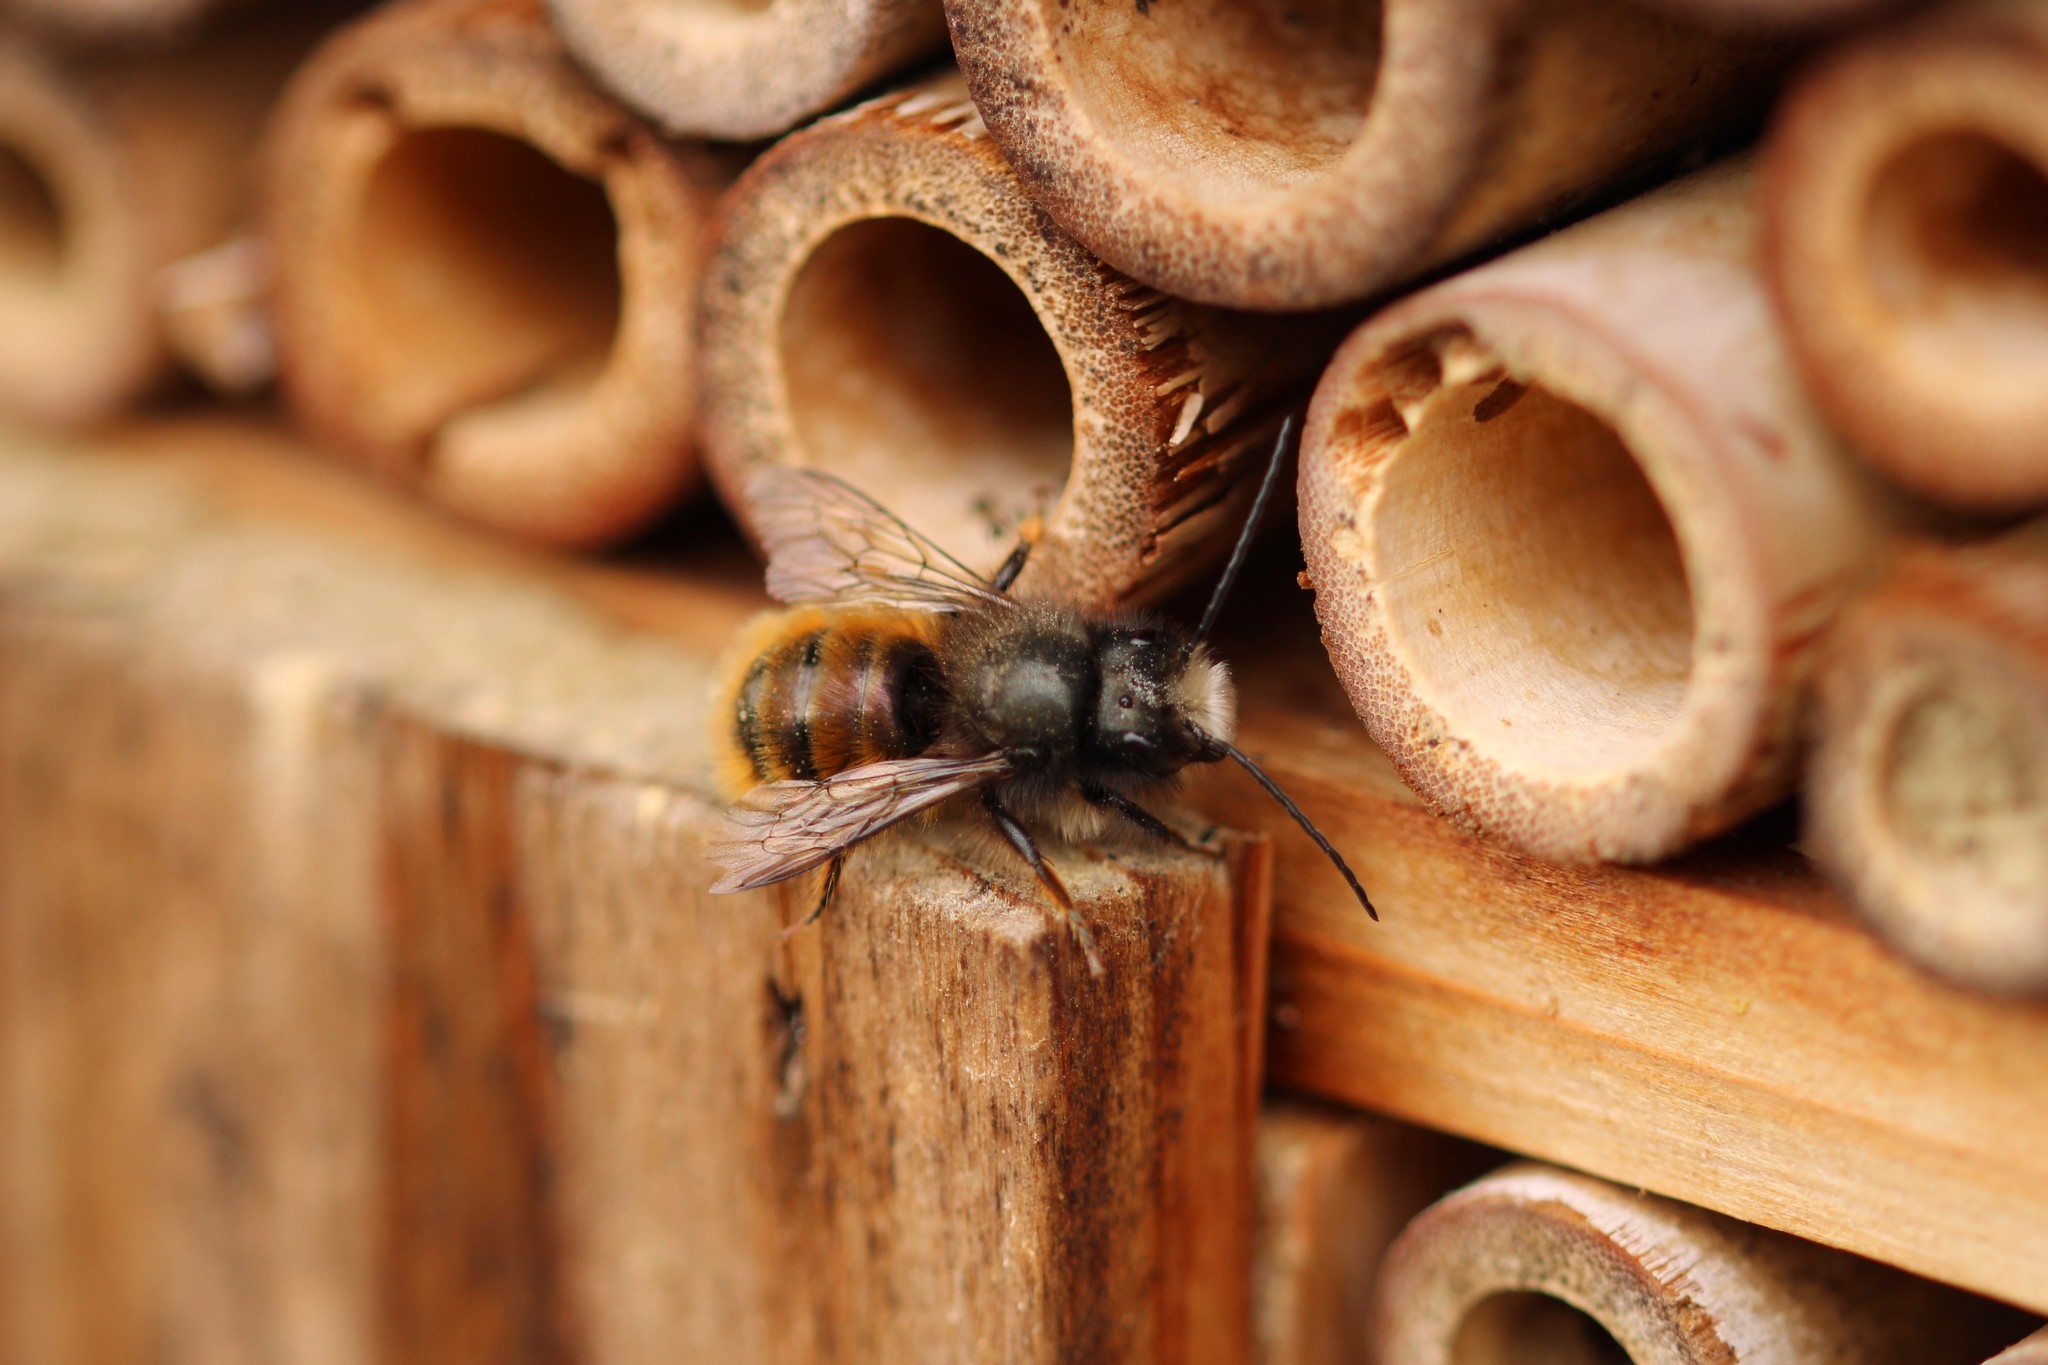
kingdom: Animalia
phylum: Arthropoda
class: Insecta
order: Hymenoptera
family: Megachilidae
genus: Osmia
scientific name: Osmia cornuta
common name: Mason bee
